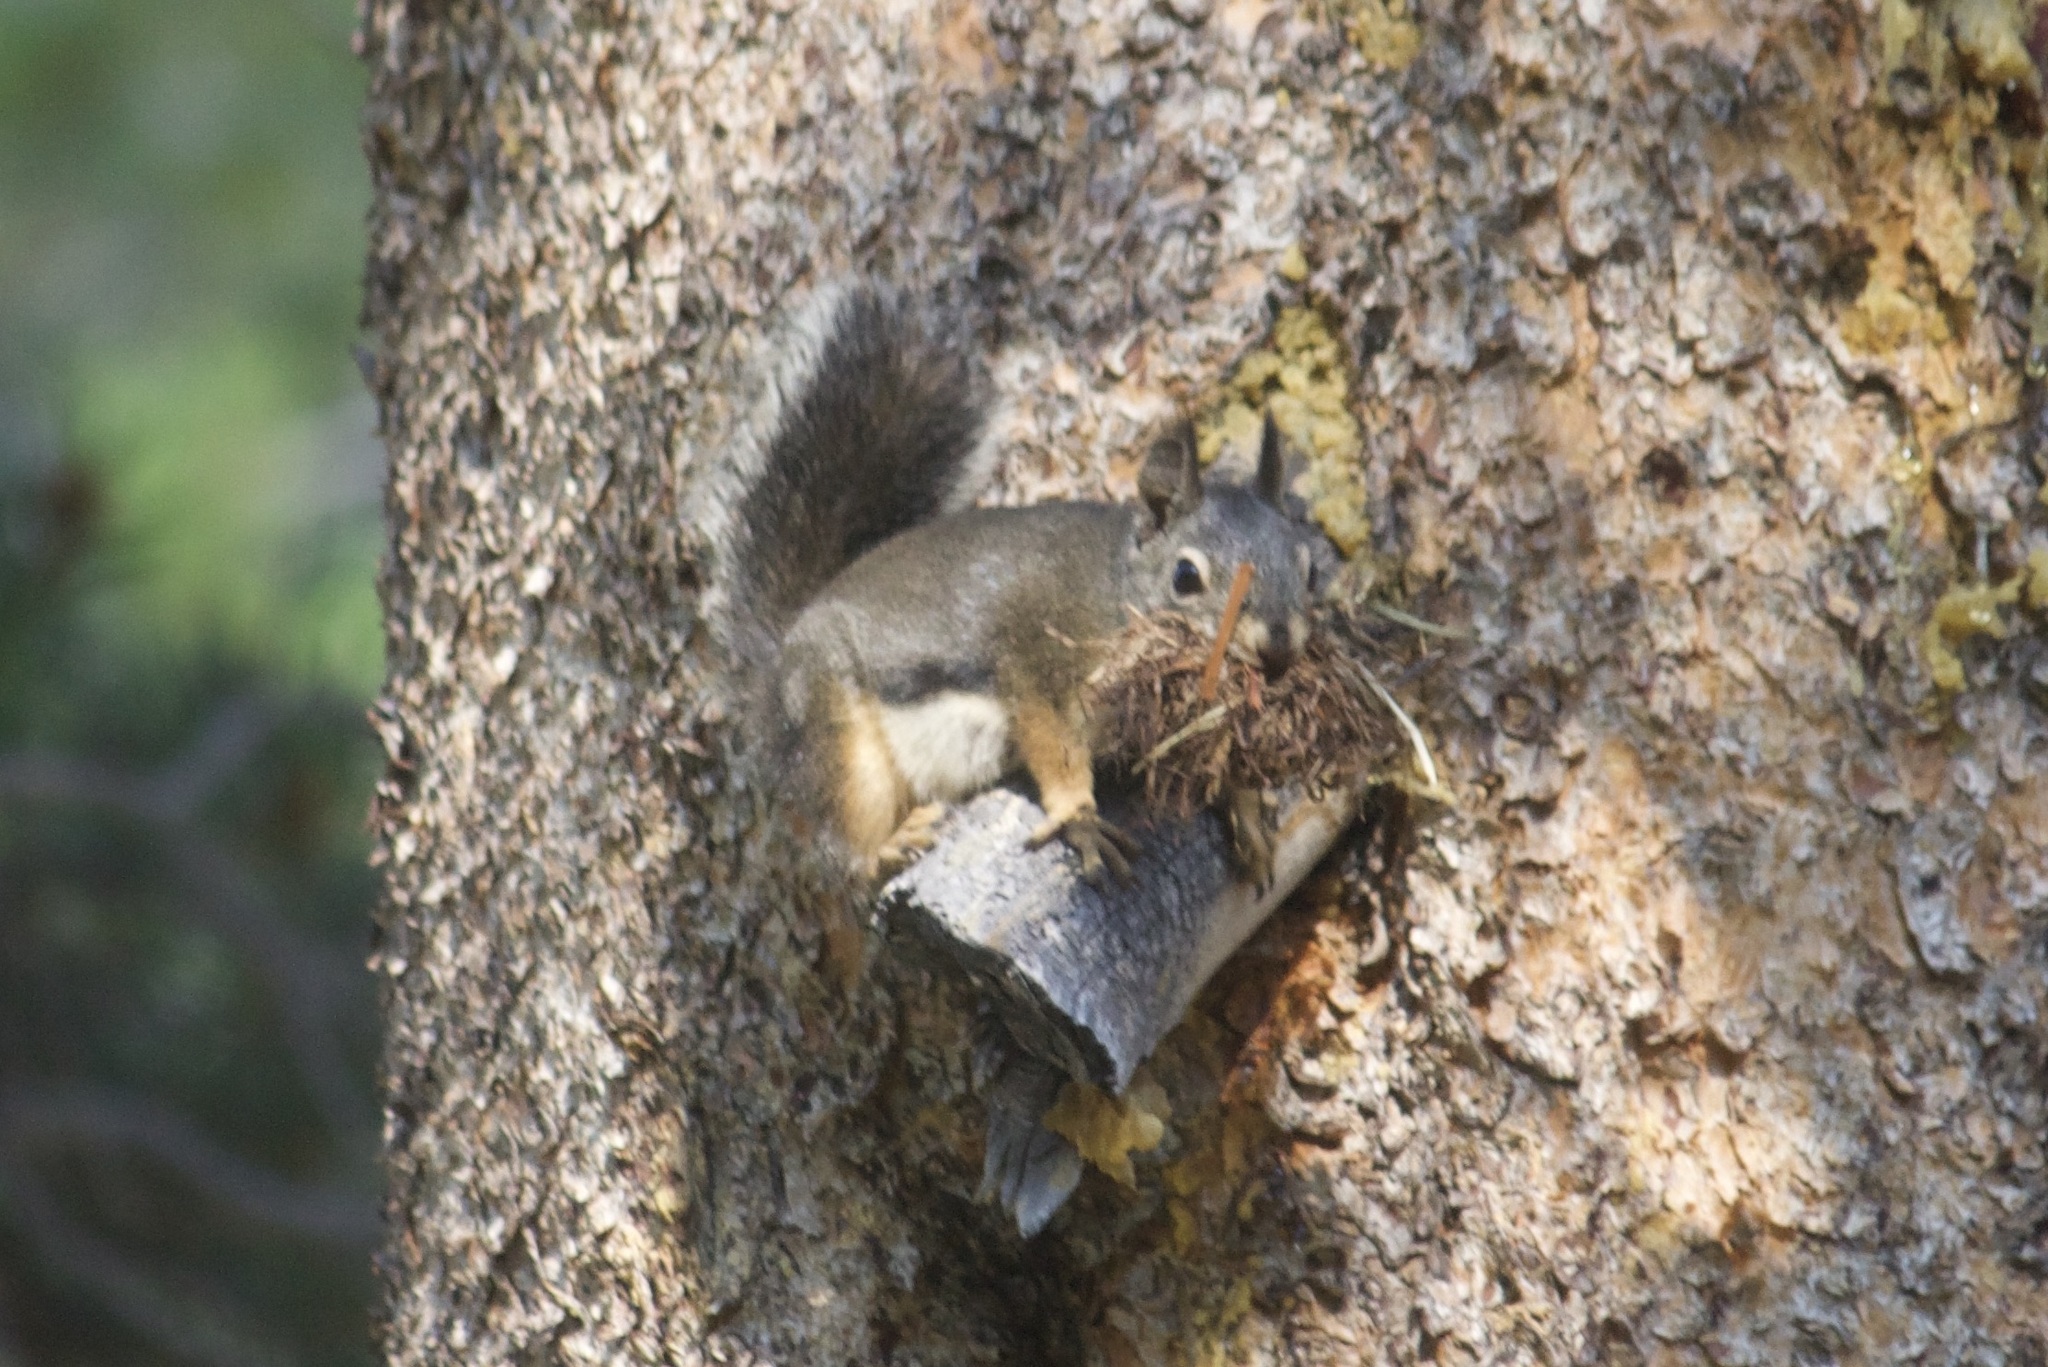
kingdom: Animalia
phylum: Chordata
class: Mammalia
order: Rodentia
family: Sciuridae
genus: Tamiasciurus
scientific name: Tamiasciurus douglasii
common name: Douglas's squirrel
